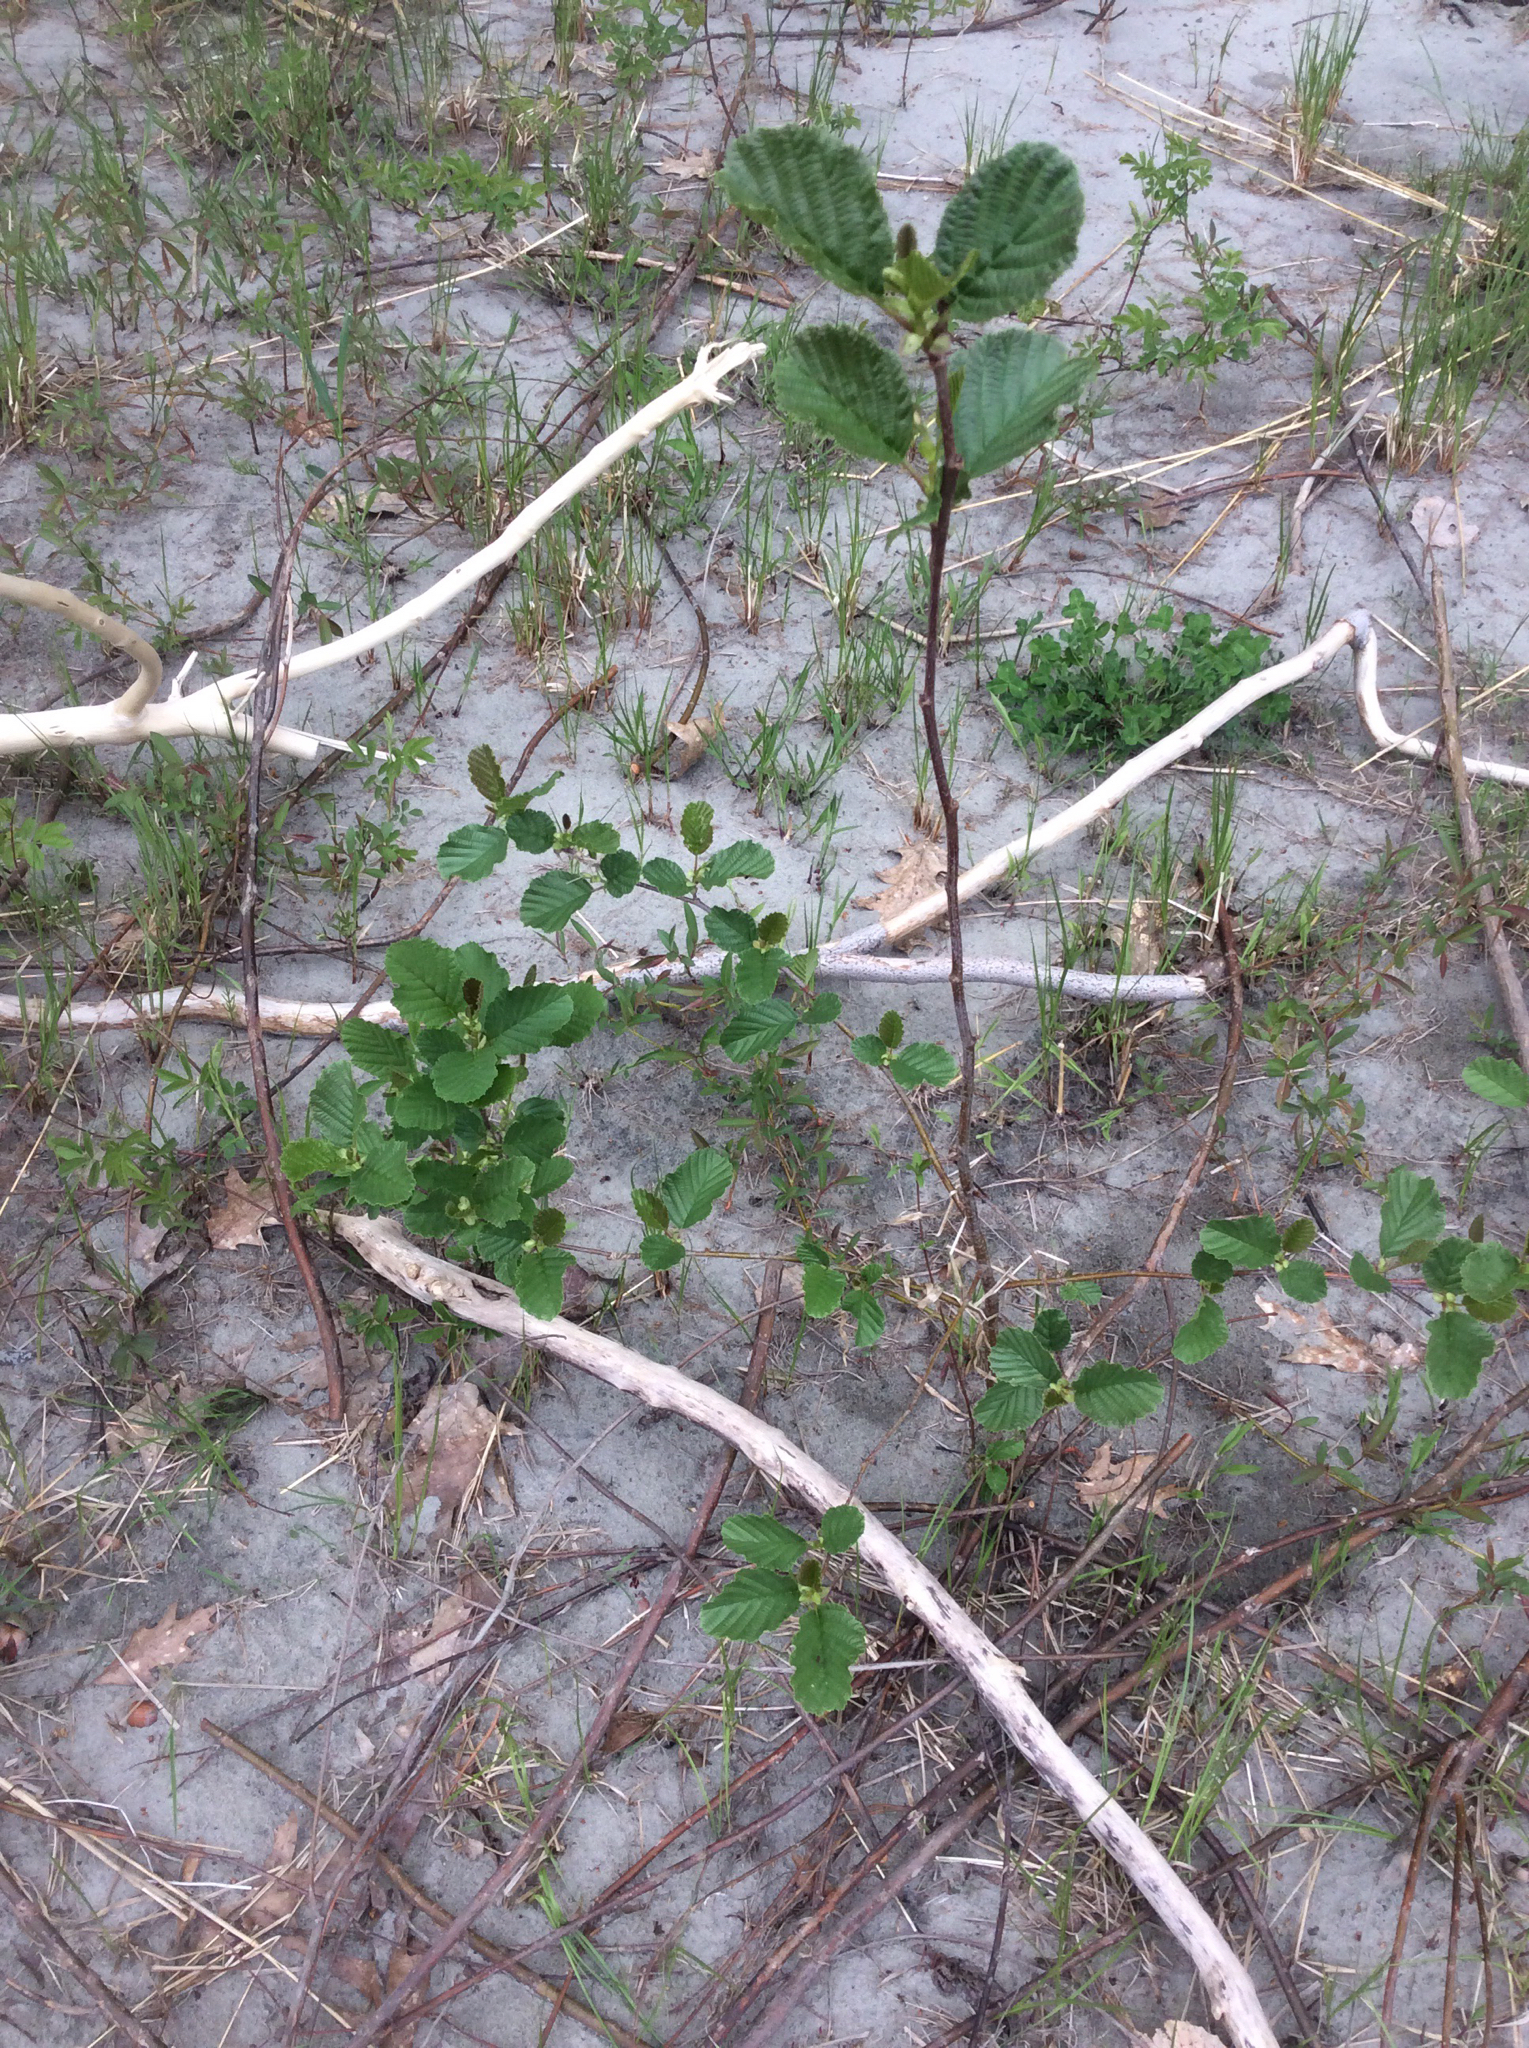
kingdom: Plantae
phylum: Tracheophyta
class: Magnoliopsida
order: Fagales
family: Betulaceae
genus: Alnus
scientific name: Alnus glutinosa
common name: Black alder
